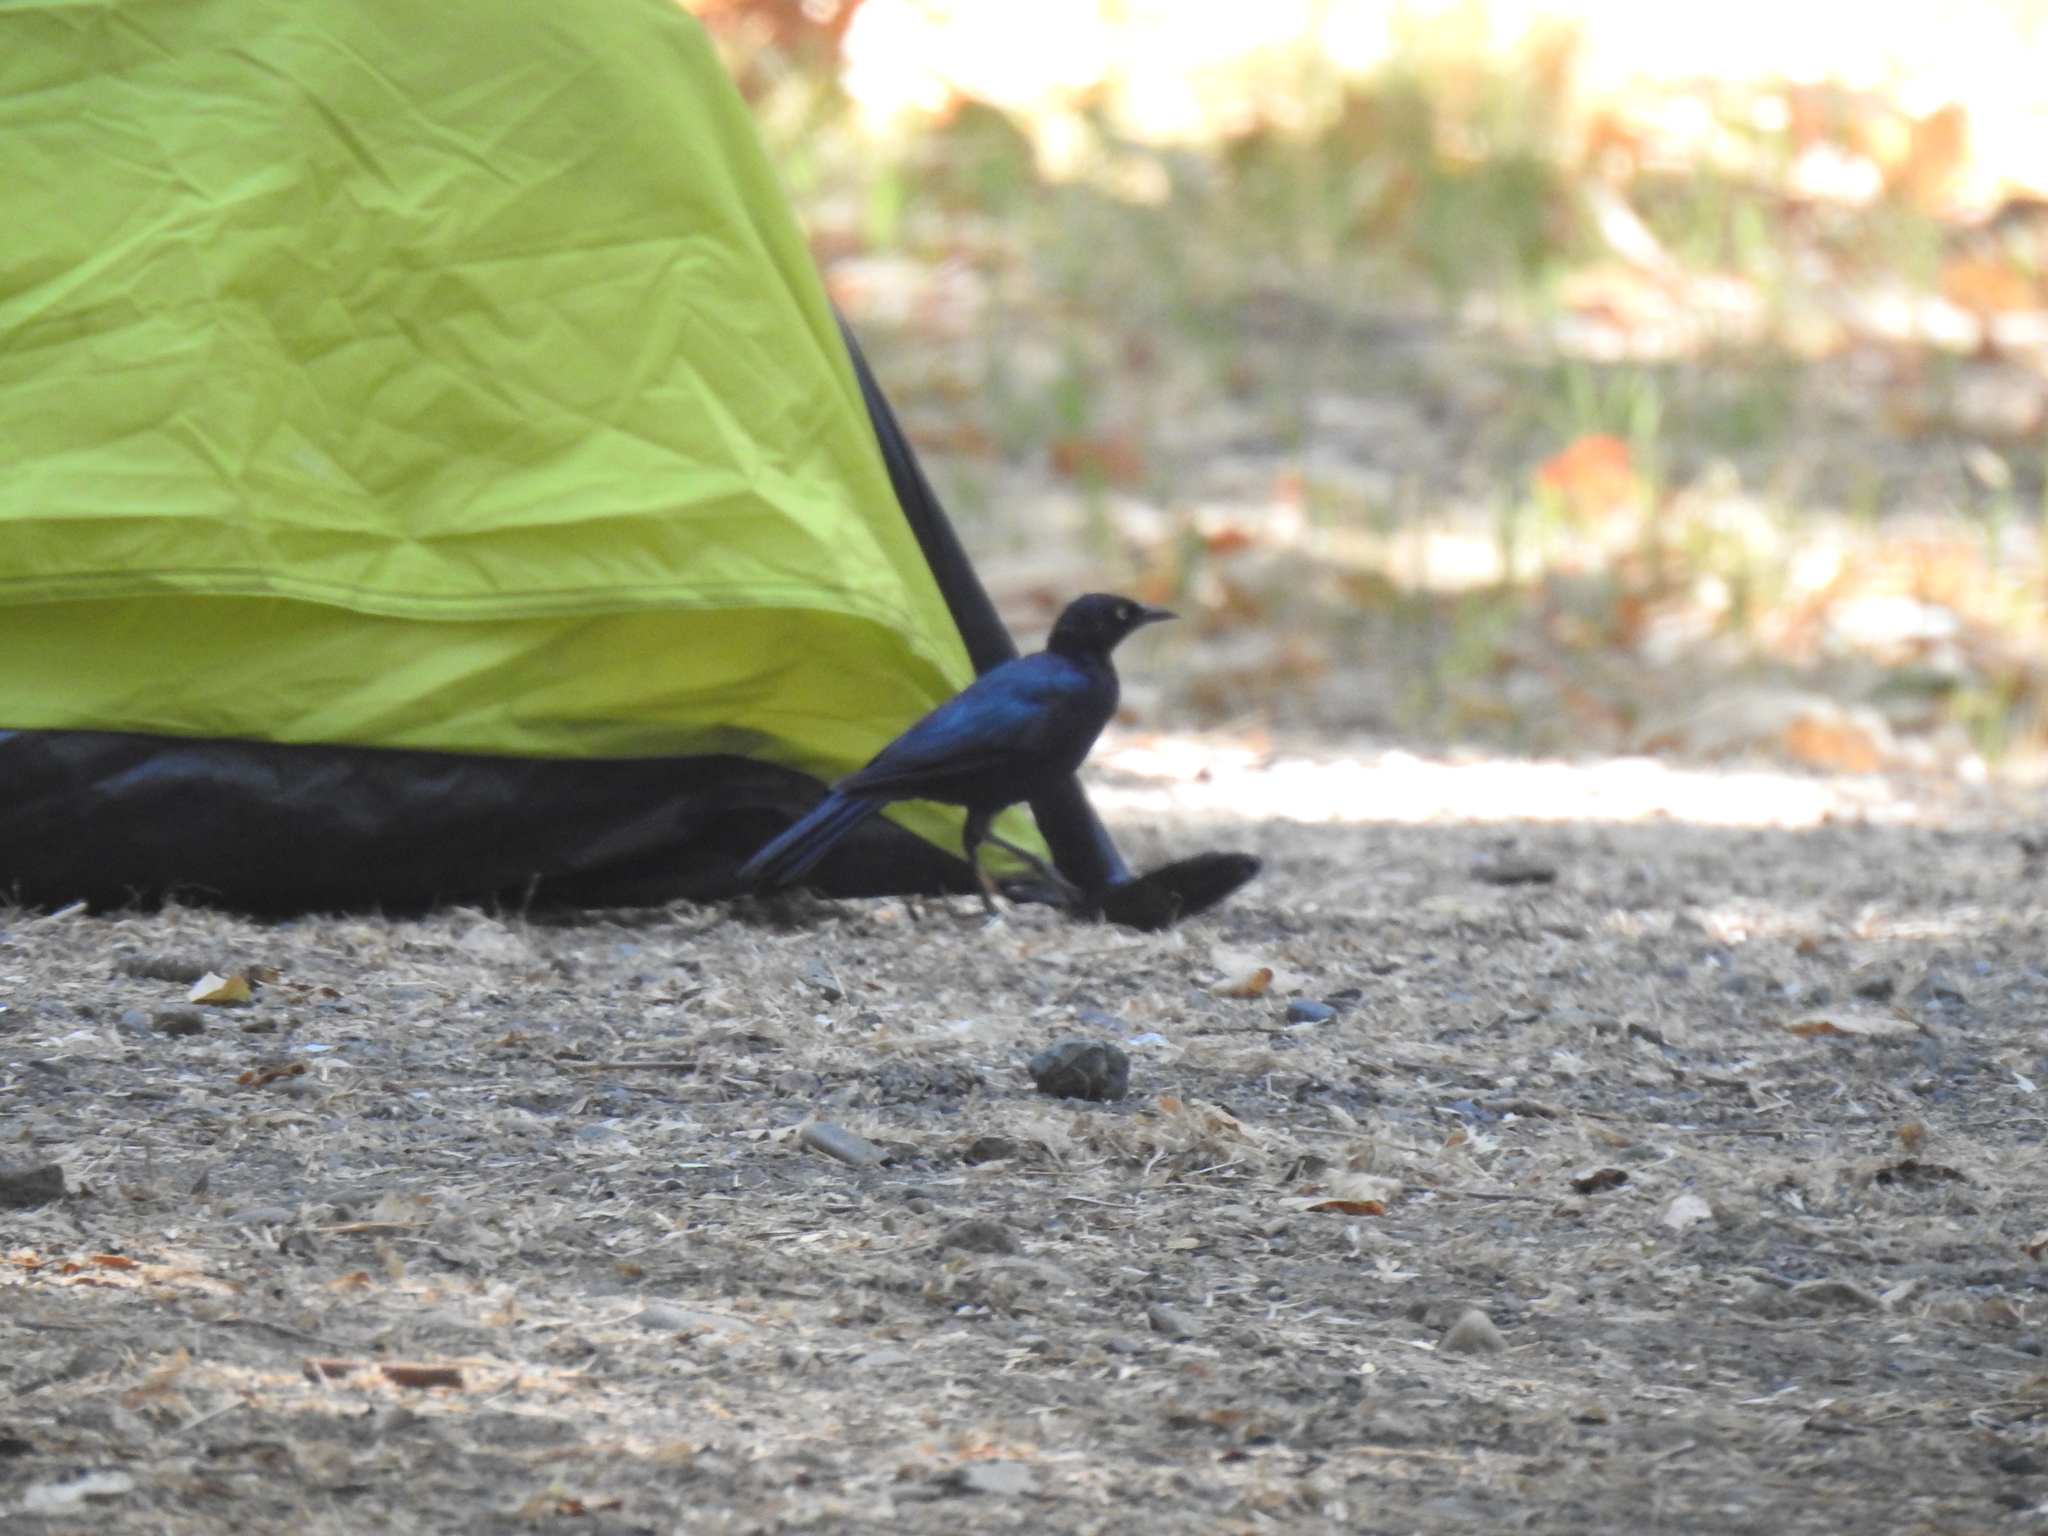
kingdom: Animalia
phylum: Chordata
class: Aves
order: Passeriformes
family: Icteridae
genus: Euphagus
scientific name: Euphagus cyanocephalus
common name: Brewer's blackbird
